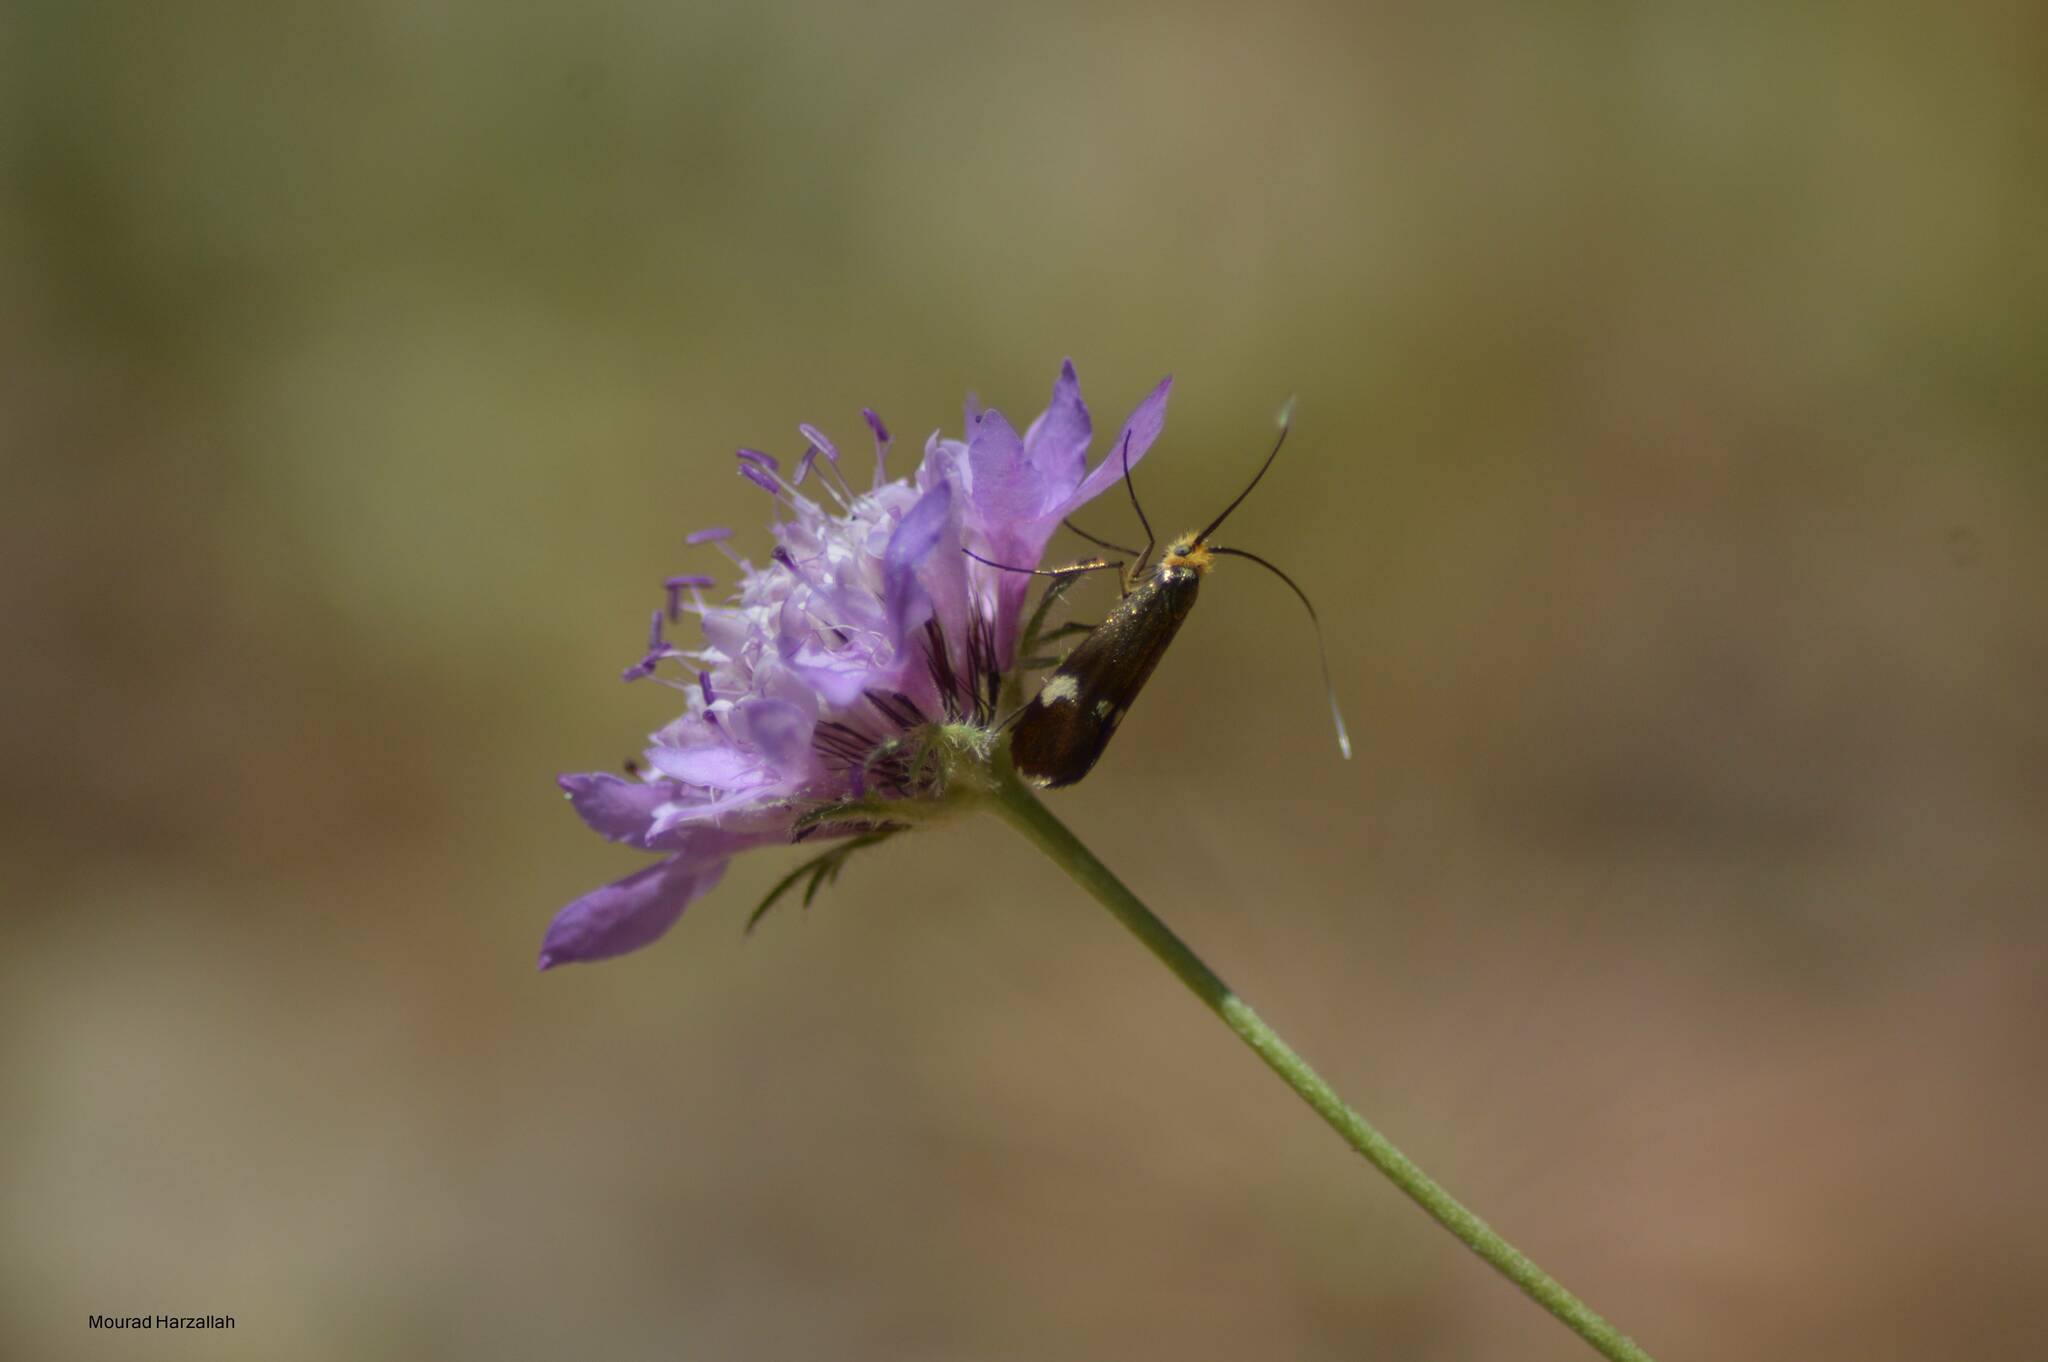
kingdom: Animalia
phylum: Arthropoda
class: Insecta
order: Lepidoptera
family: Adelidae
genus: Nemophora
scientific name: Nemophora raddaella
